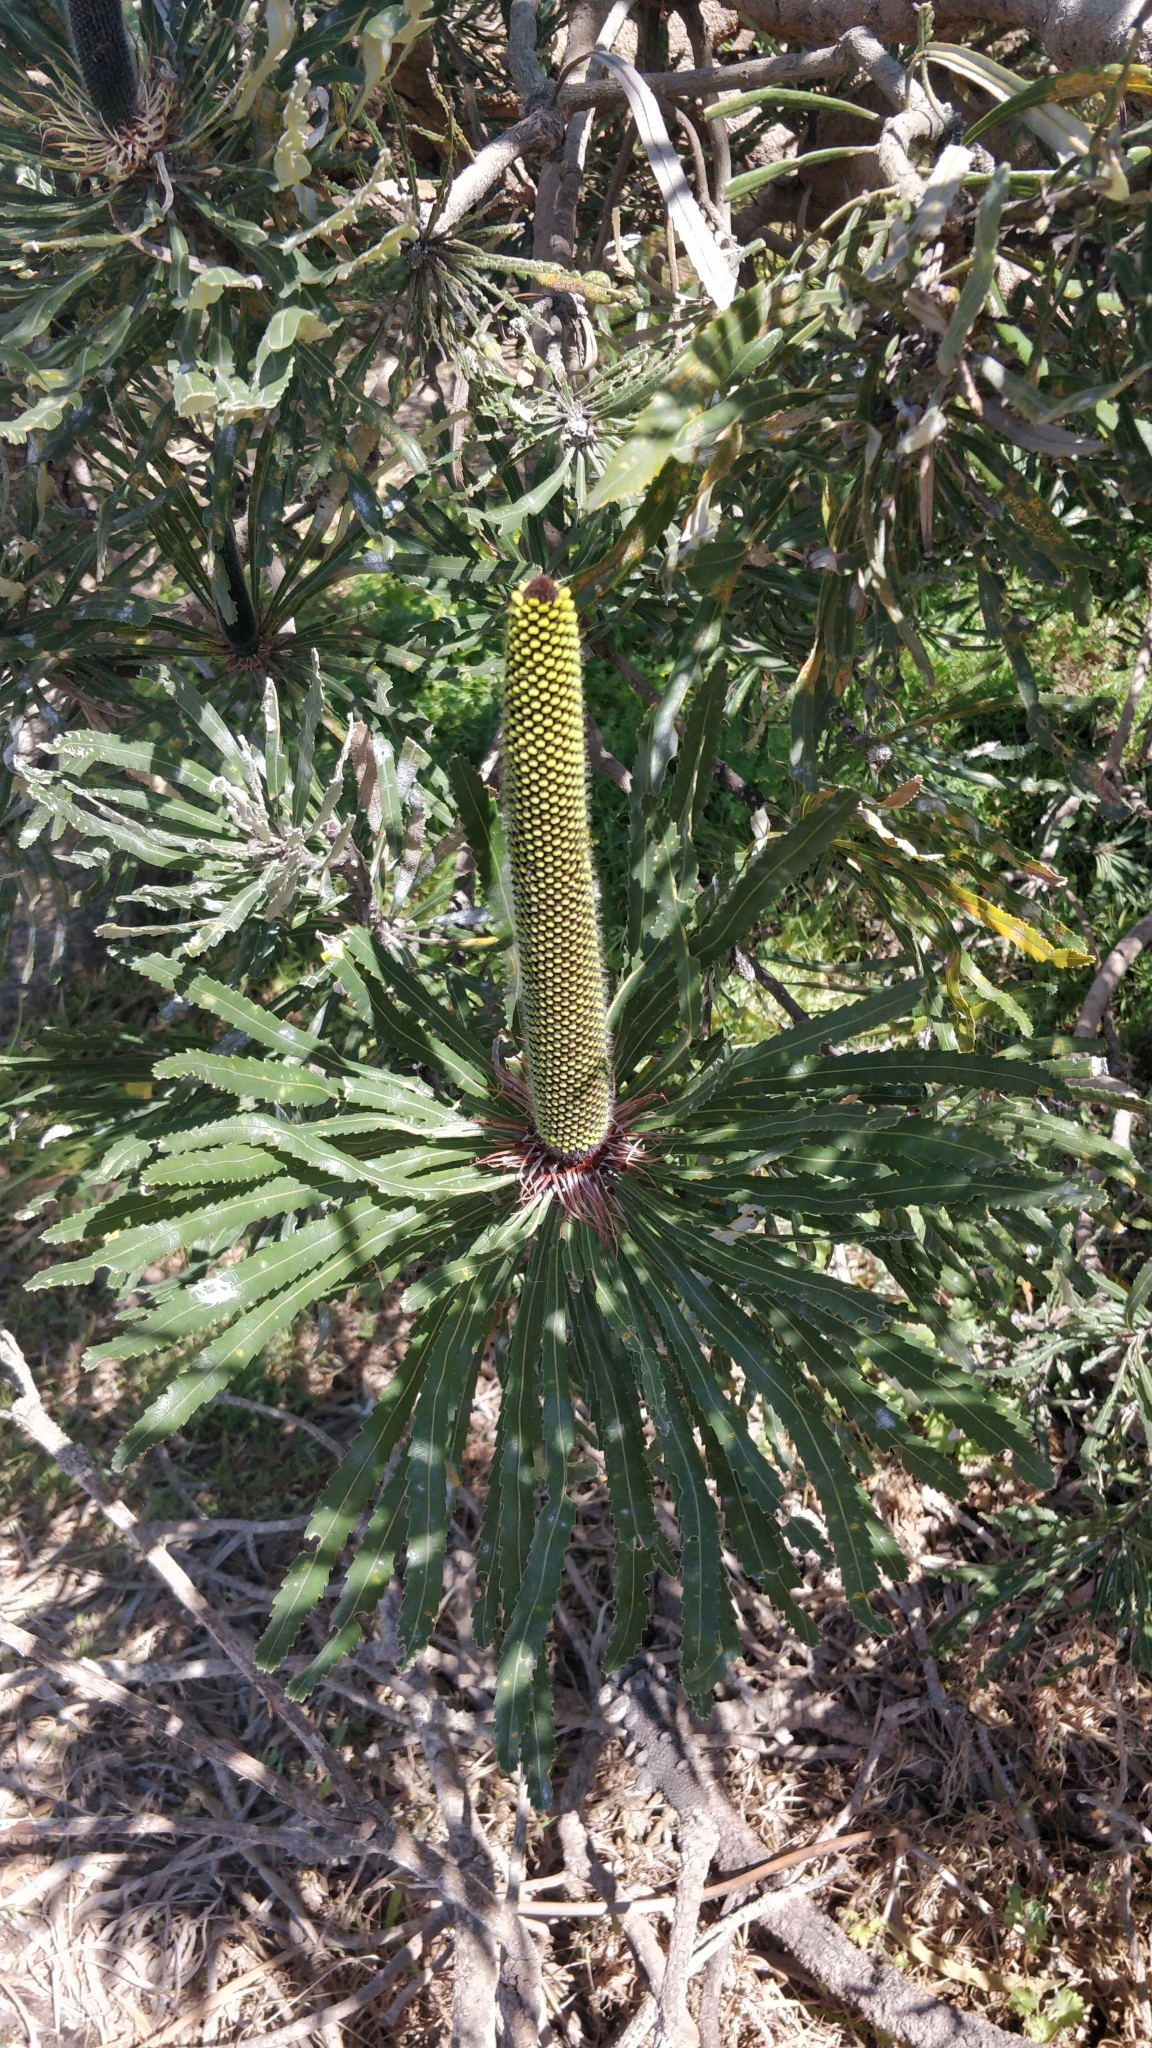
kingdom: Plantae
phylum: Tracheophyta
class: Magnoliopsida
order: Proteales
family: Proteaceae
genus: Banksia
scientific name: Banksia attenuata
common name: Coast banksia
